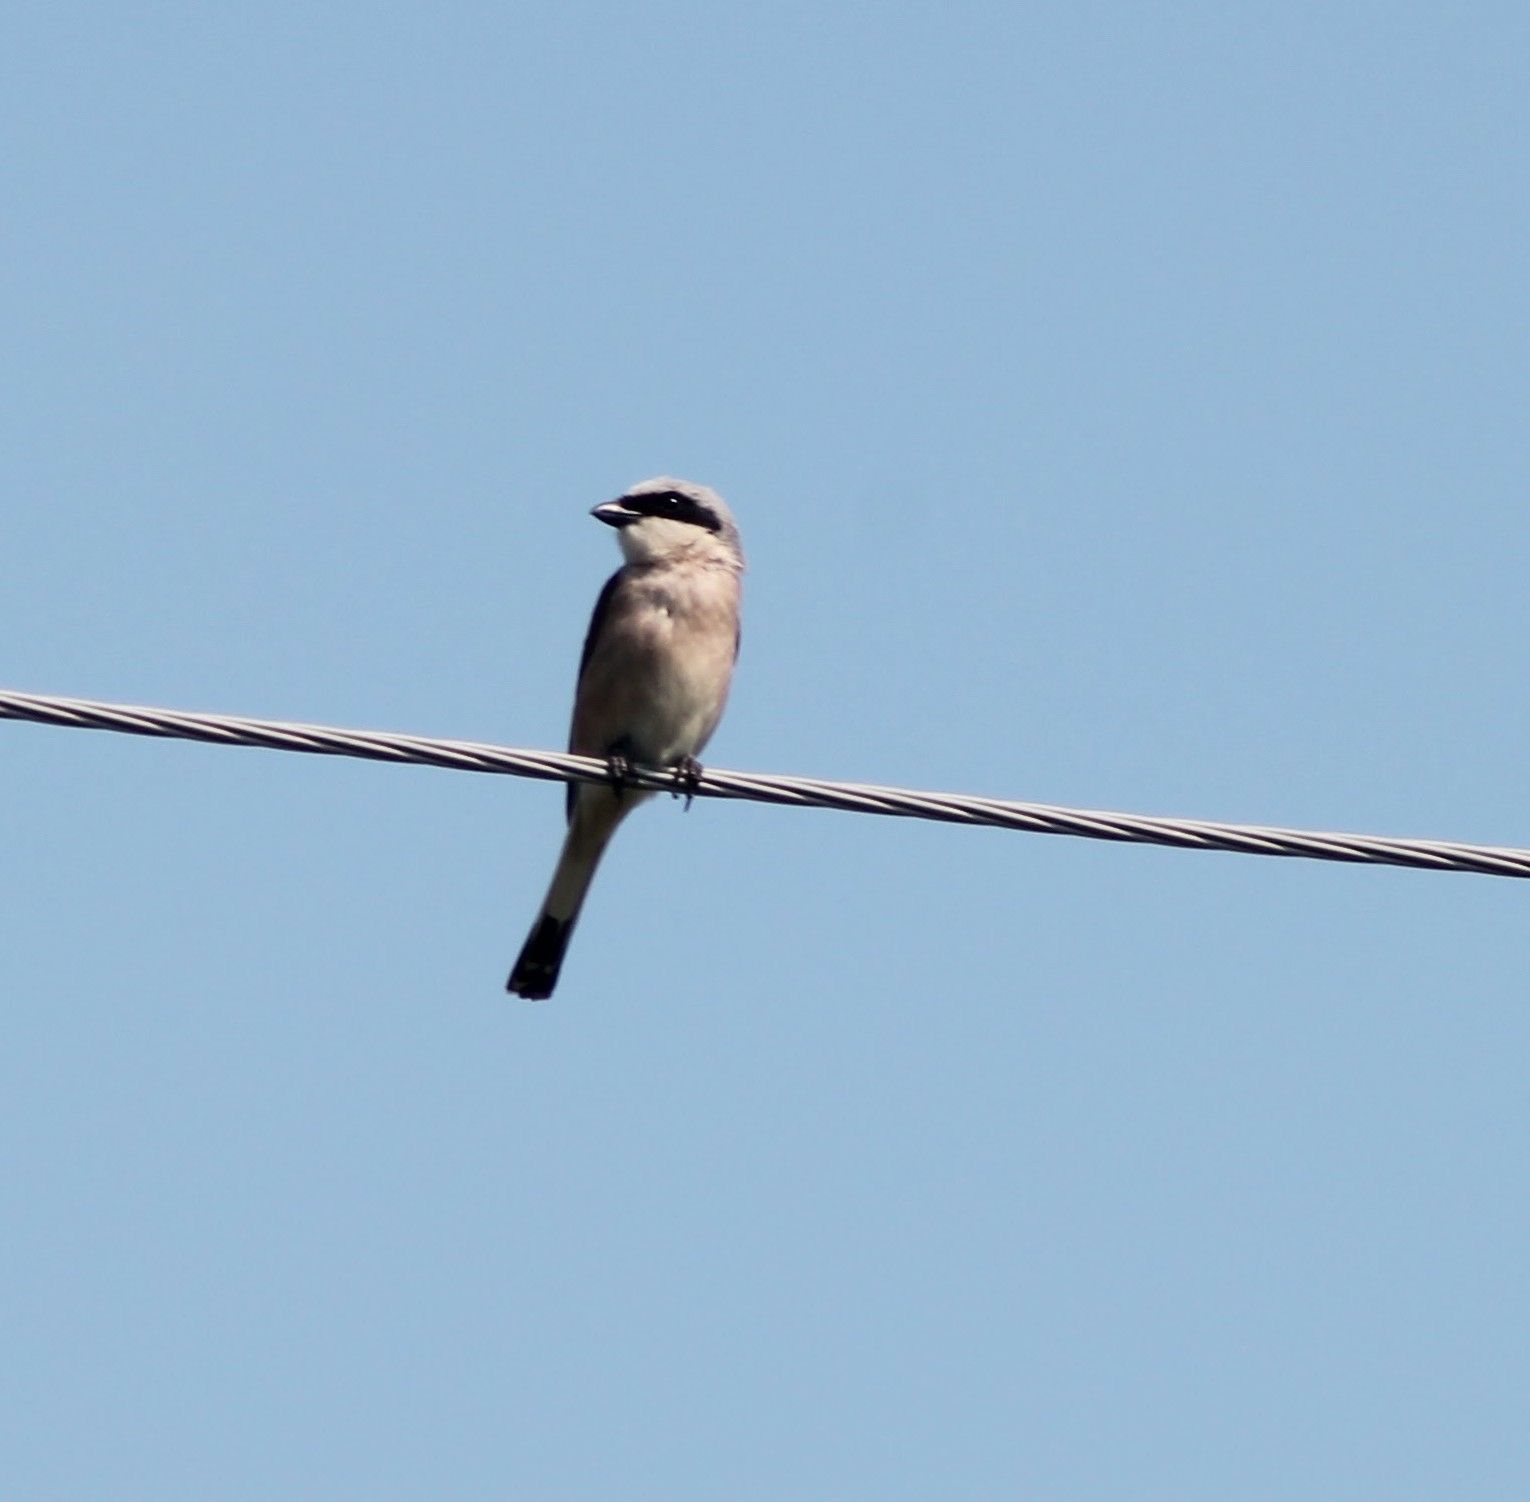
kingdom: Animalia
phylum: Chordata
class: Aves
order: Passeriformes
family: Laniidae
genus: Lanius
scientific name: Lanius collurio
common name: Red-backed shrike
